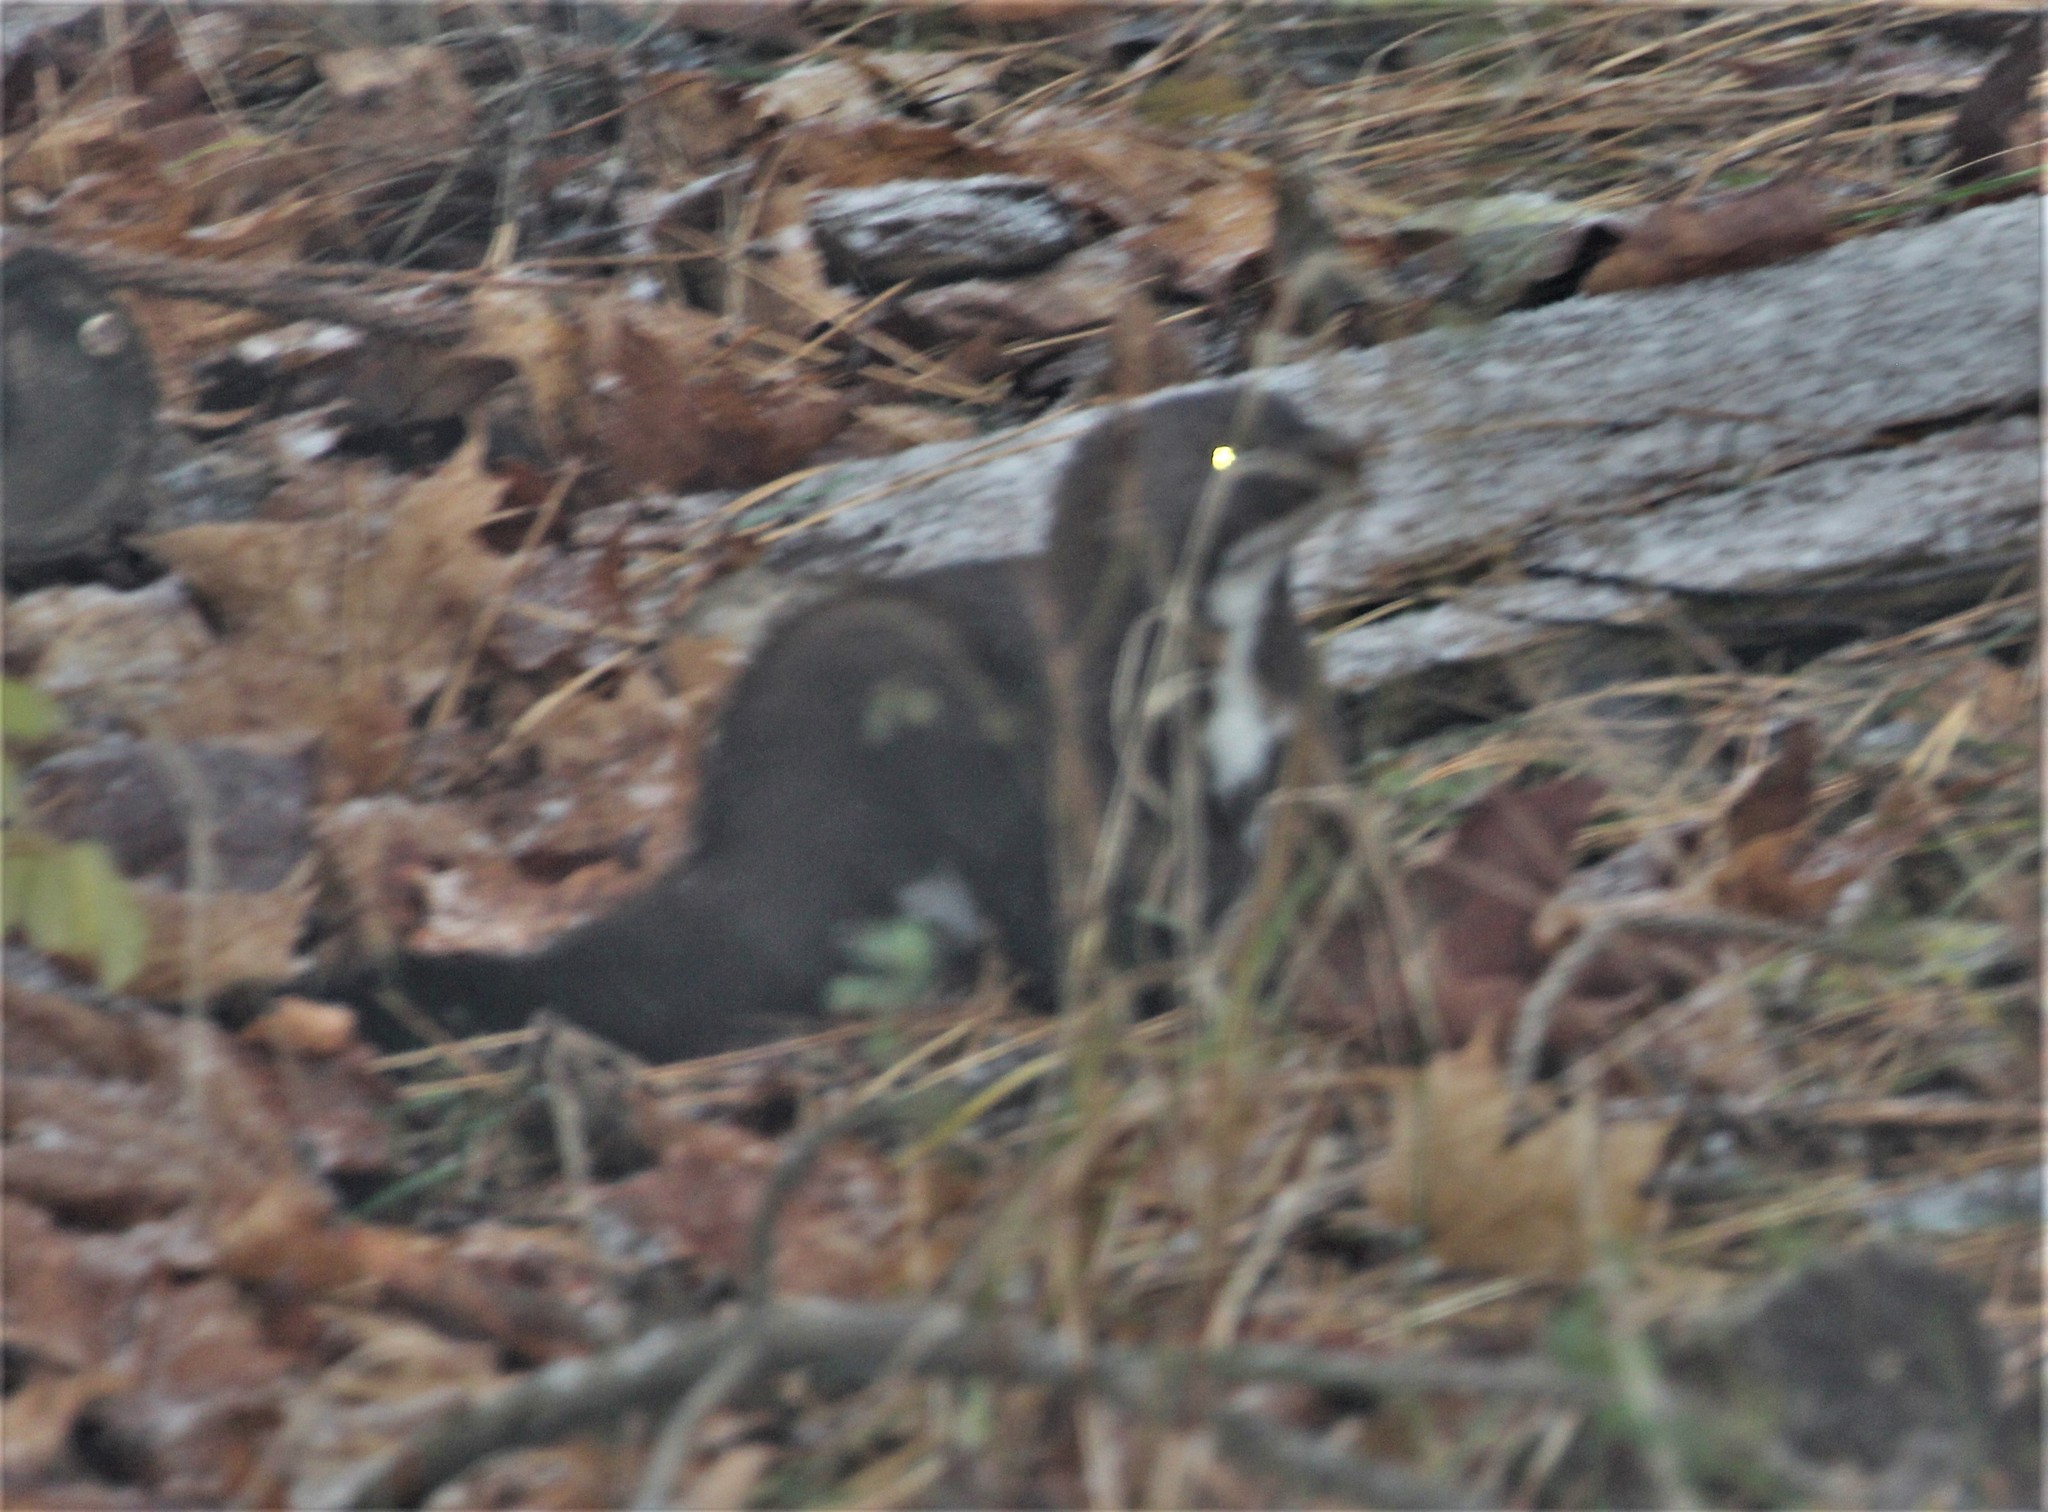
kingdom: Animalia
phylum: Chordata
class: Mammalia
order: Carnivora
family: Mustelidae
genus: Mustela
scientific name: Mustela
